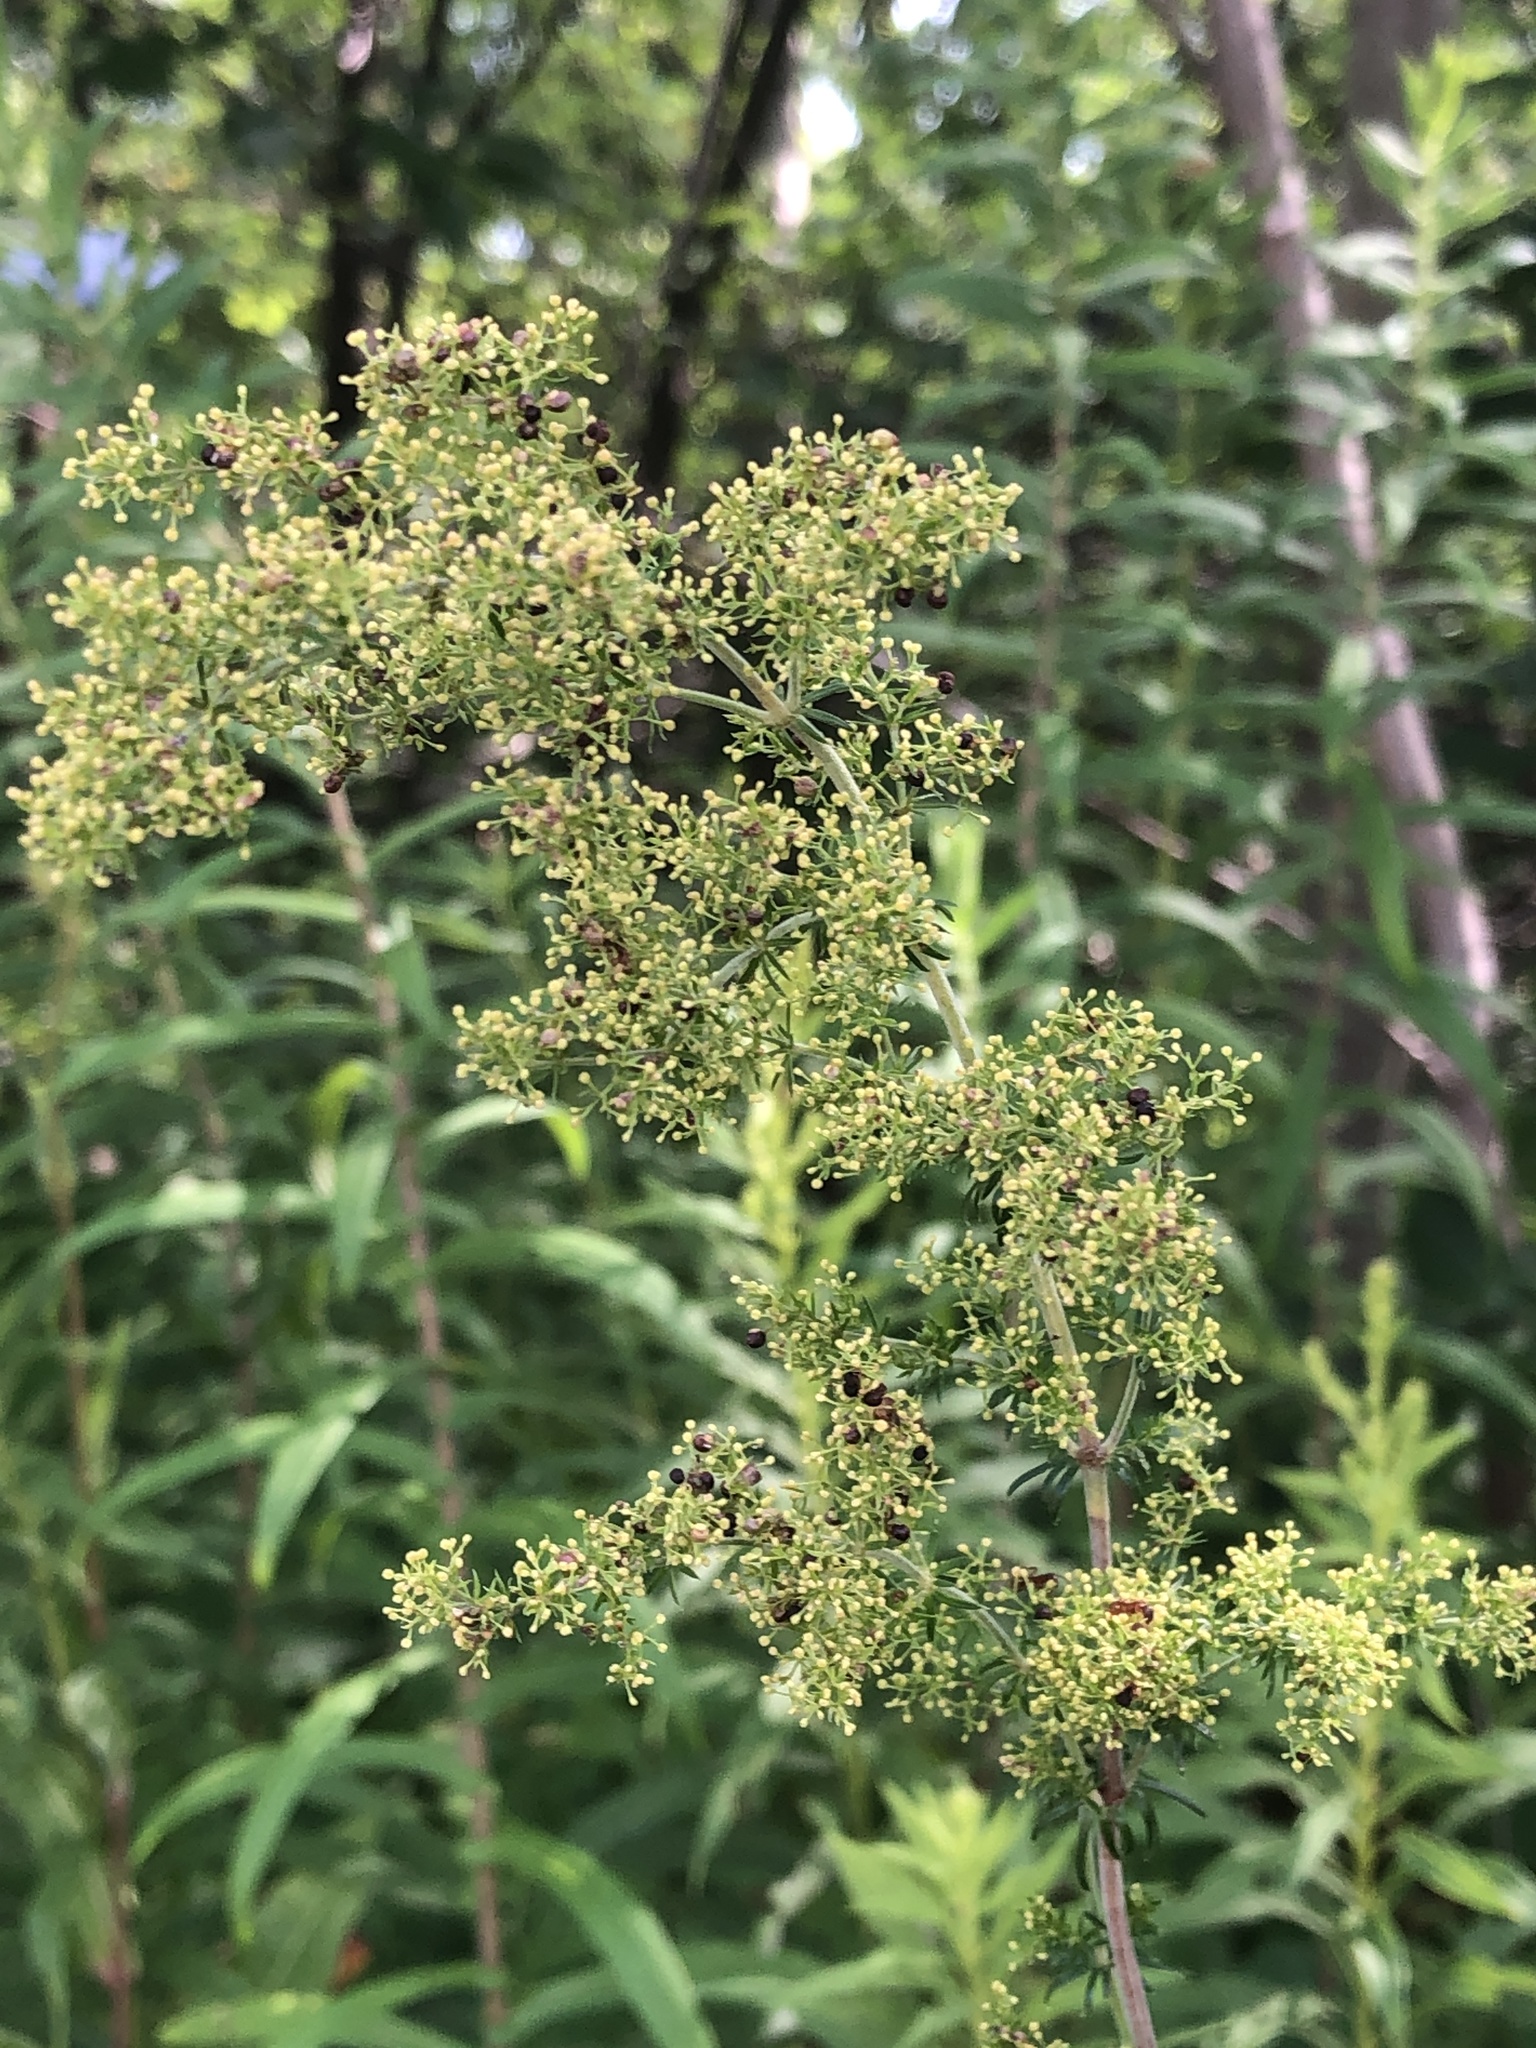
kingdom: Plantae
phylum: Tracheophyta
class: Magnoliopsida
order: Gentianales
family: Rubiaceae
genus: Galium
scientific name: Galium verum
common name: Lady's bedstraw
